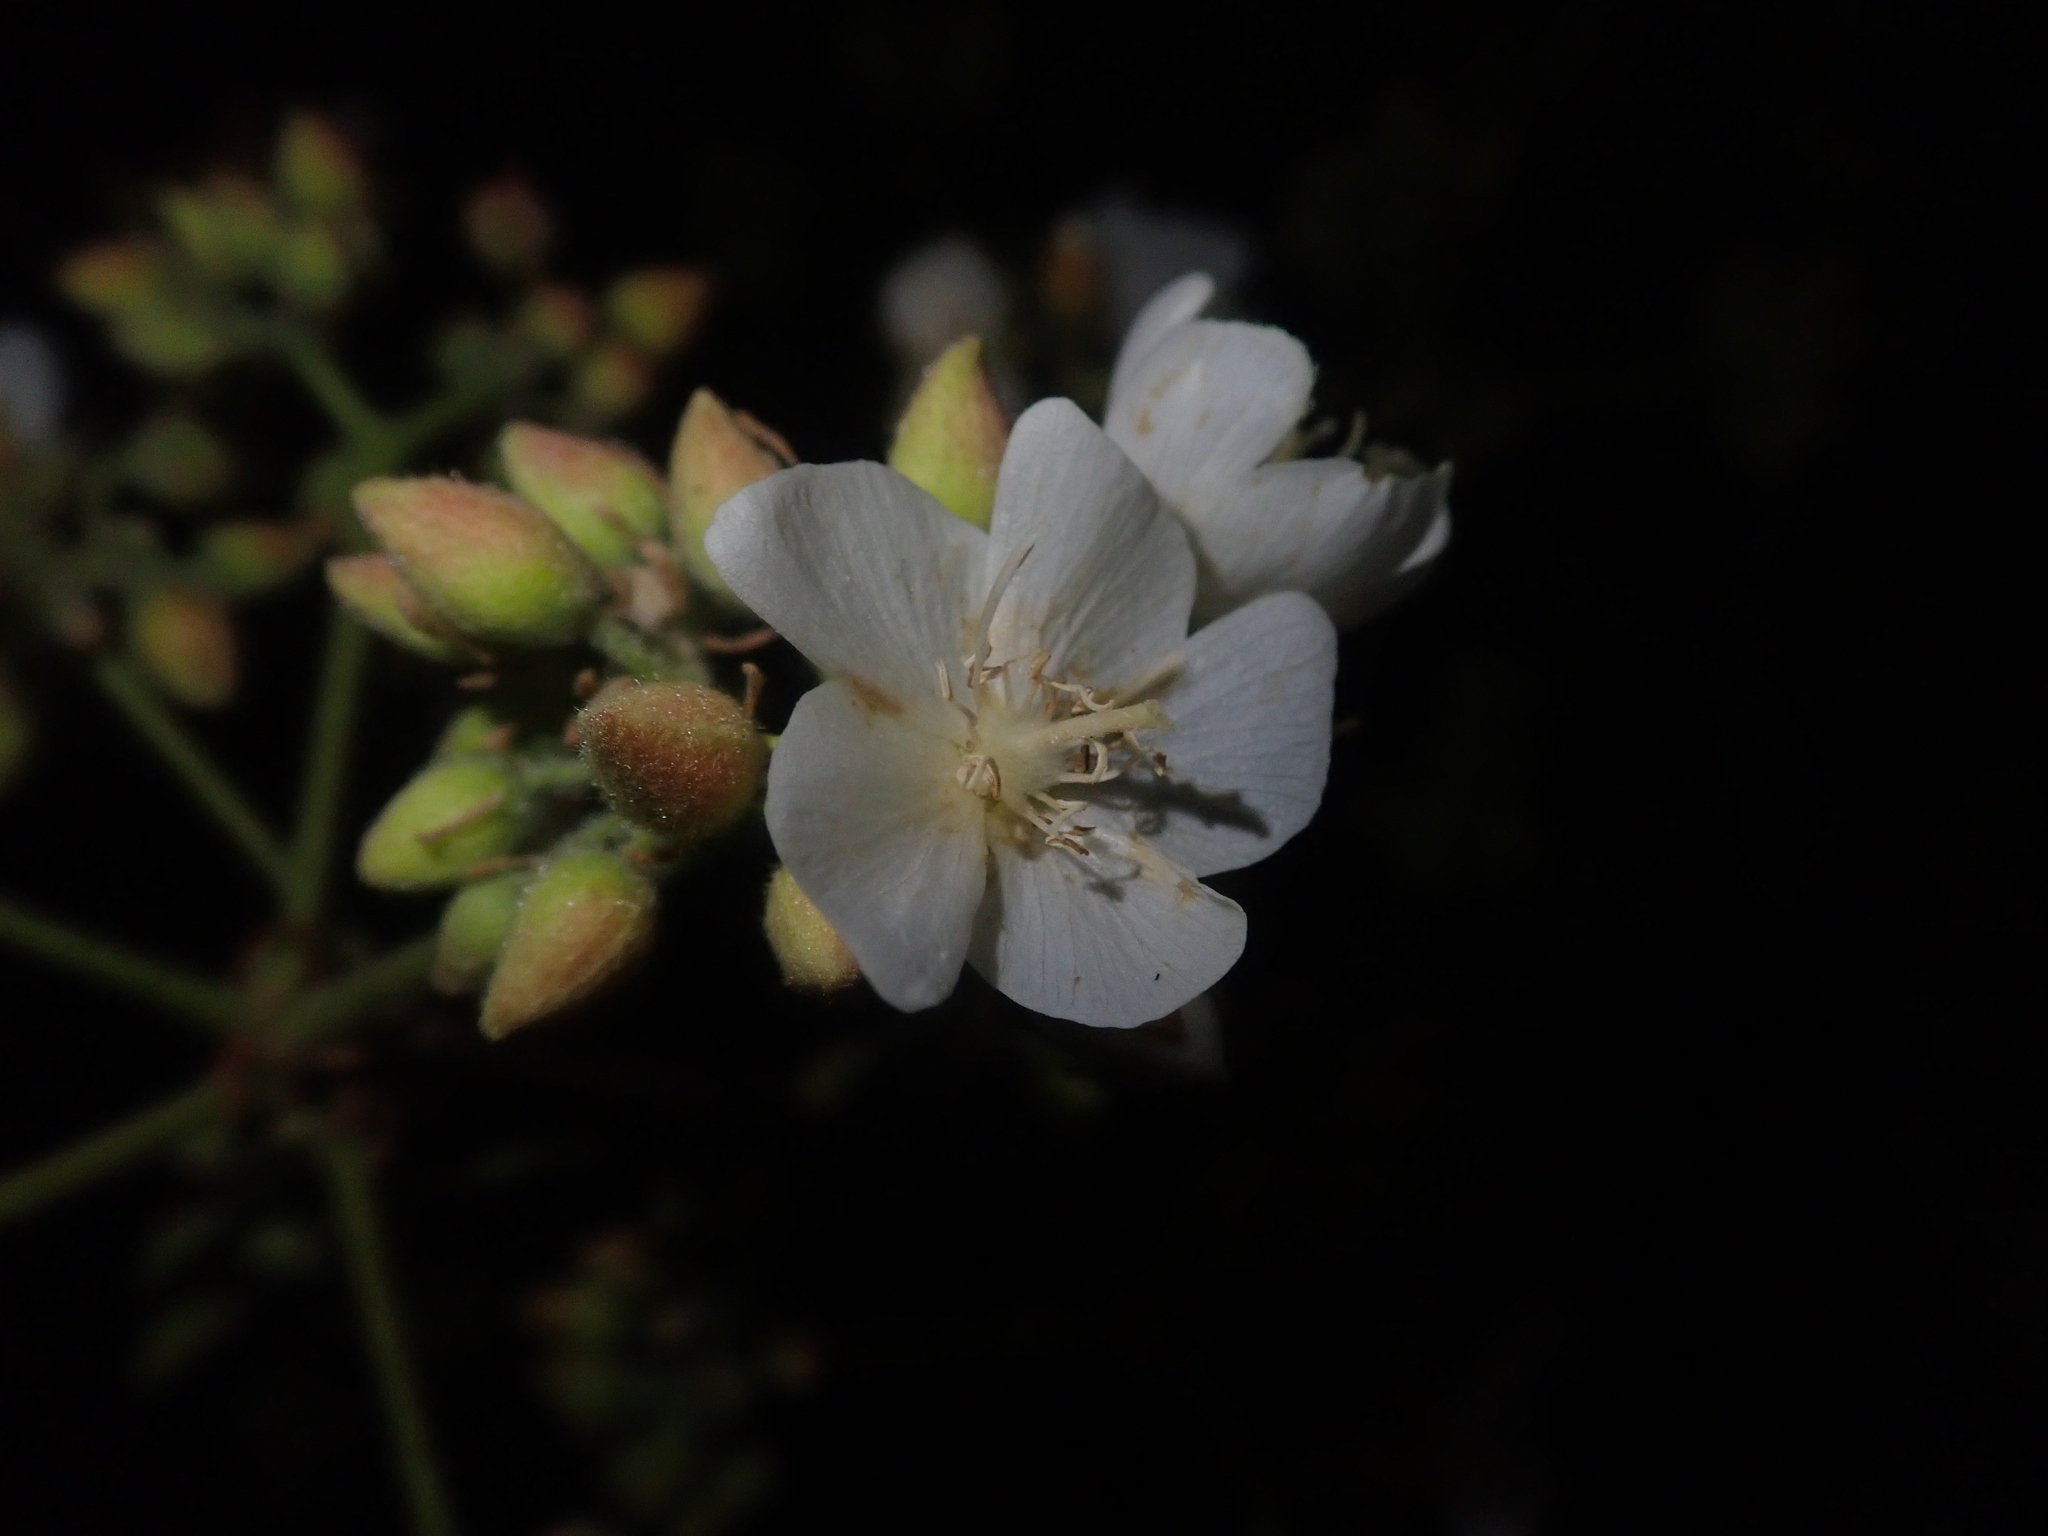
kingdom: Plantae
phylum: Tracheophyta
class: Magnoliopsida
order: Malvales
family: Malvaceae
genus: Dombeya
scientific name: Dombeya rotundifolia
